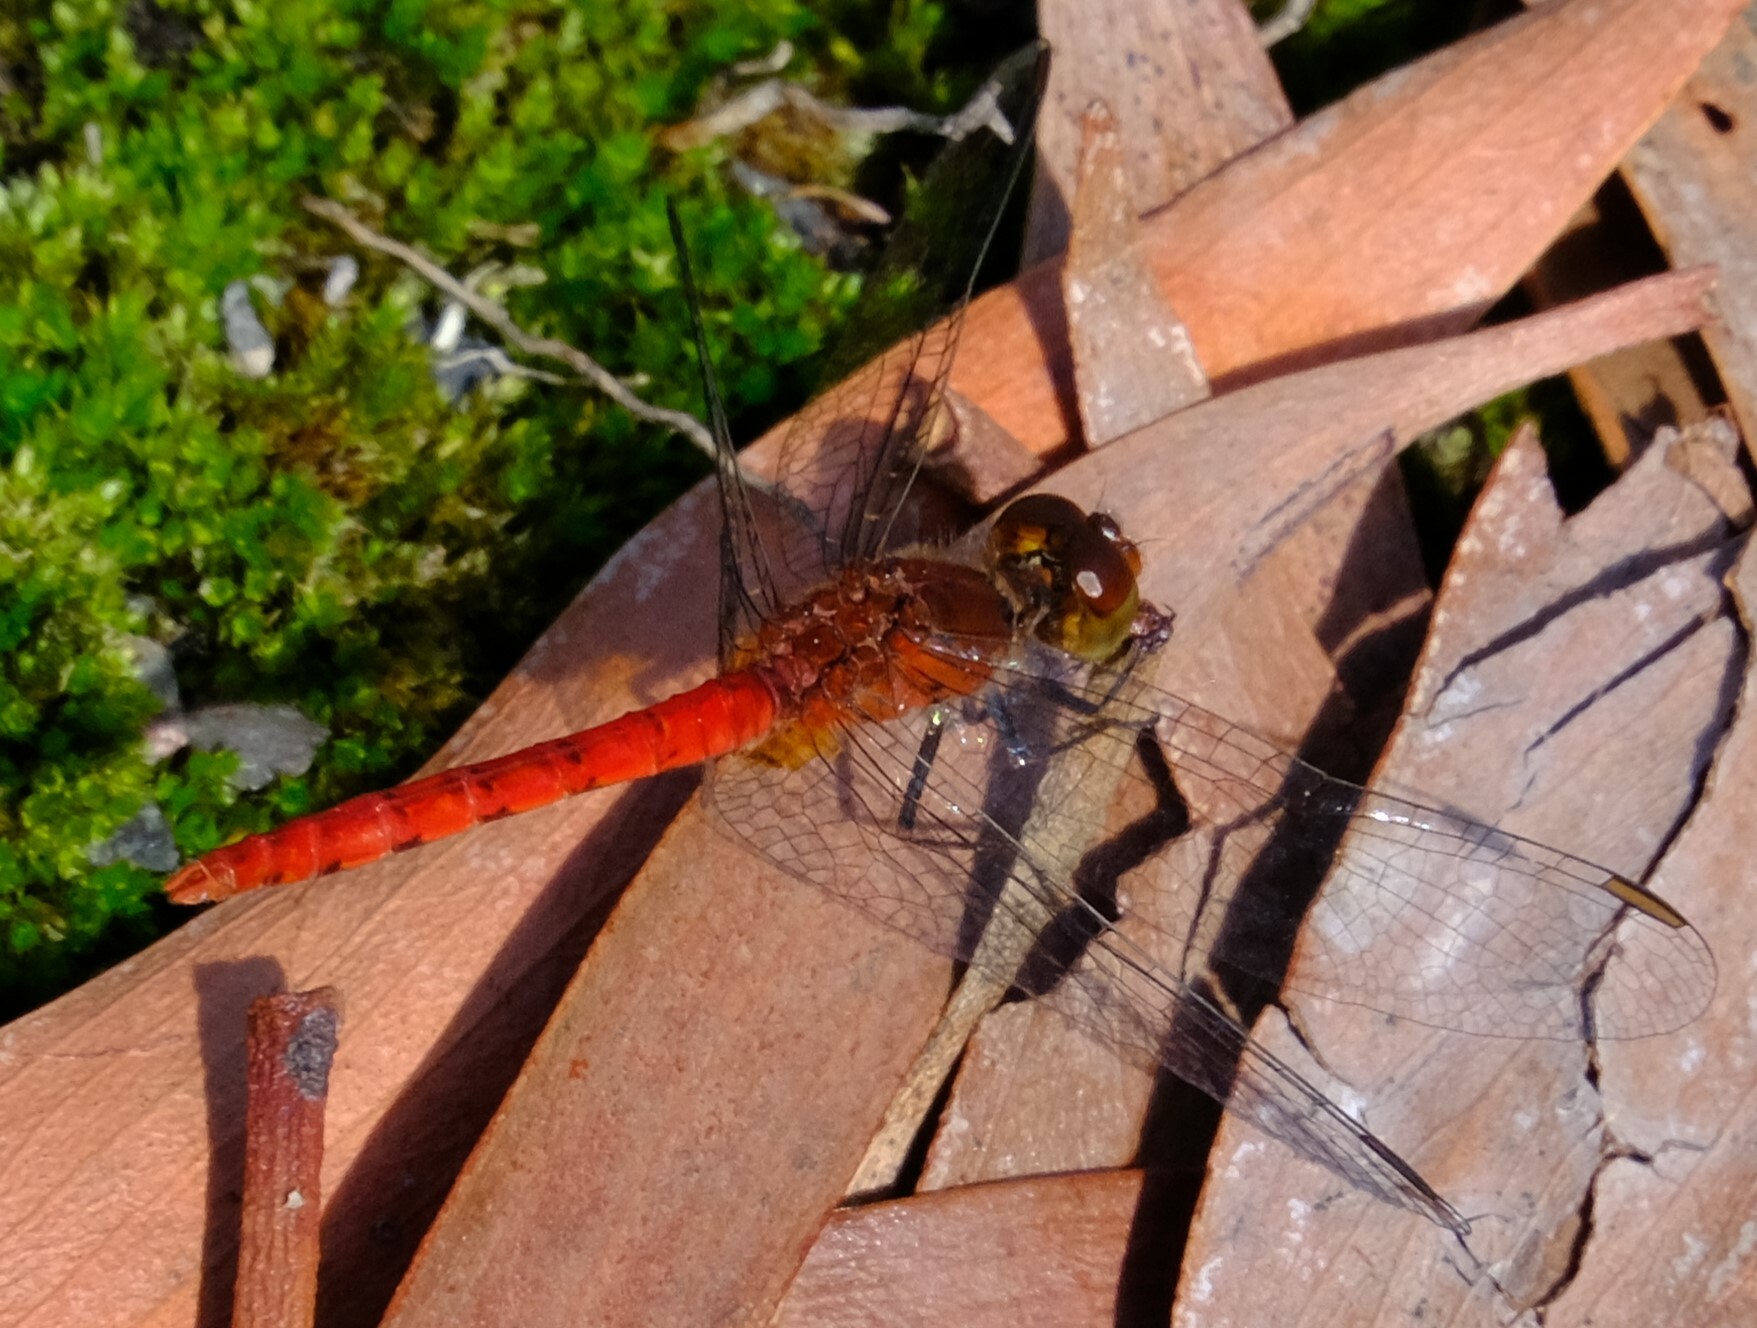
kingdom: Animalia
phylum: Arthropoda
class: Insecta
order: Odonata
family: Libellulidae
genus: Nannodiplax
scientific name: Nannodiplax rubra
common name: Pygmy percher
